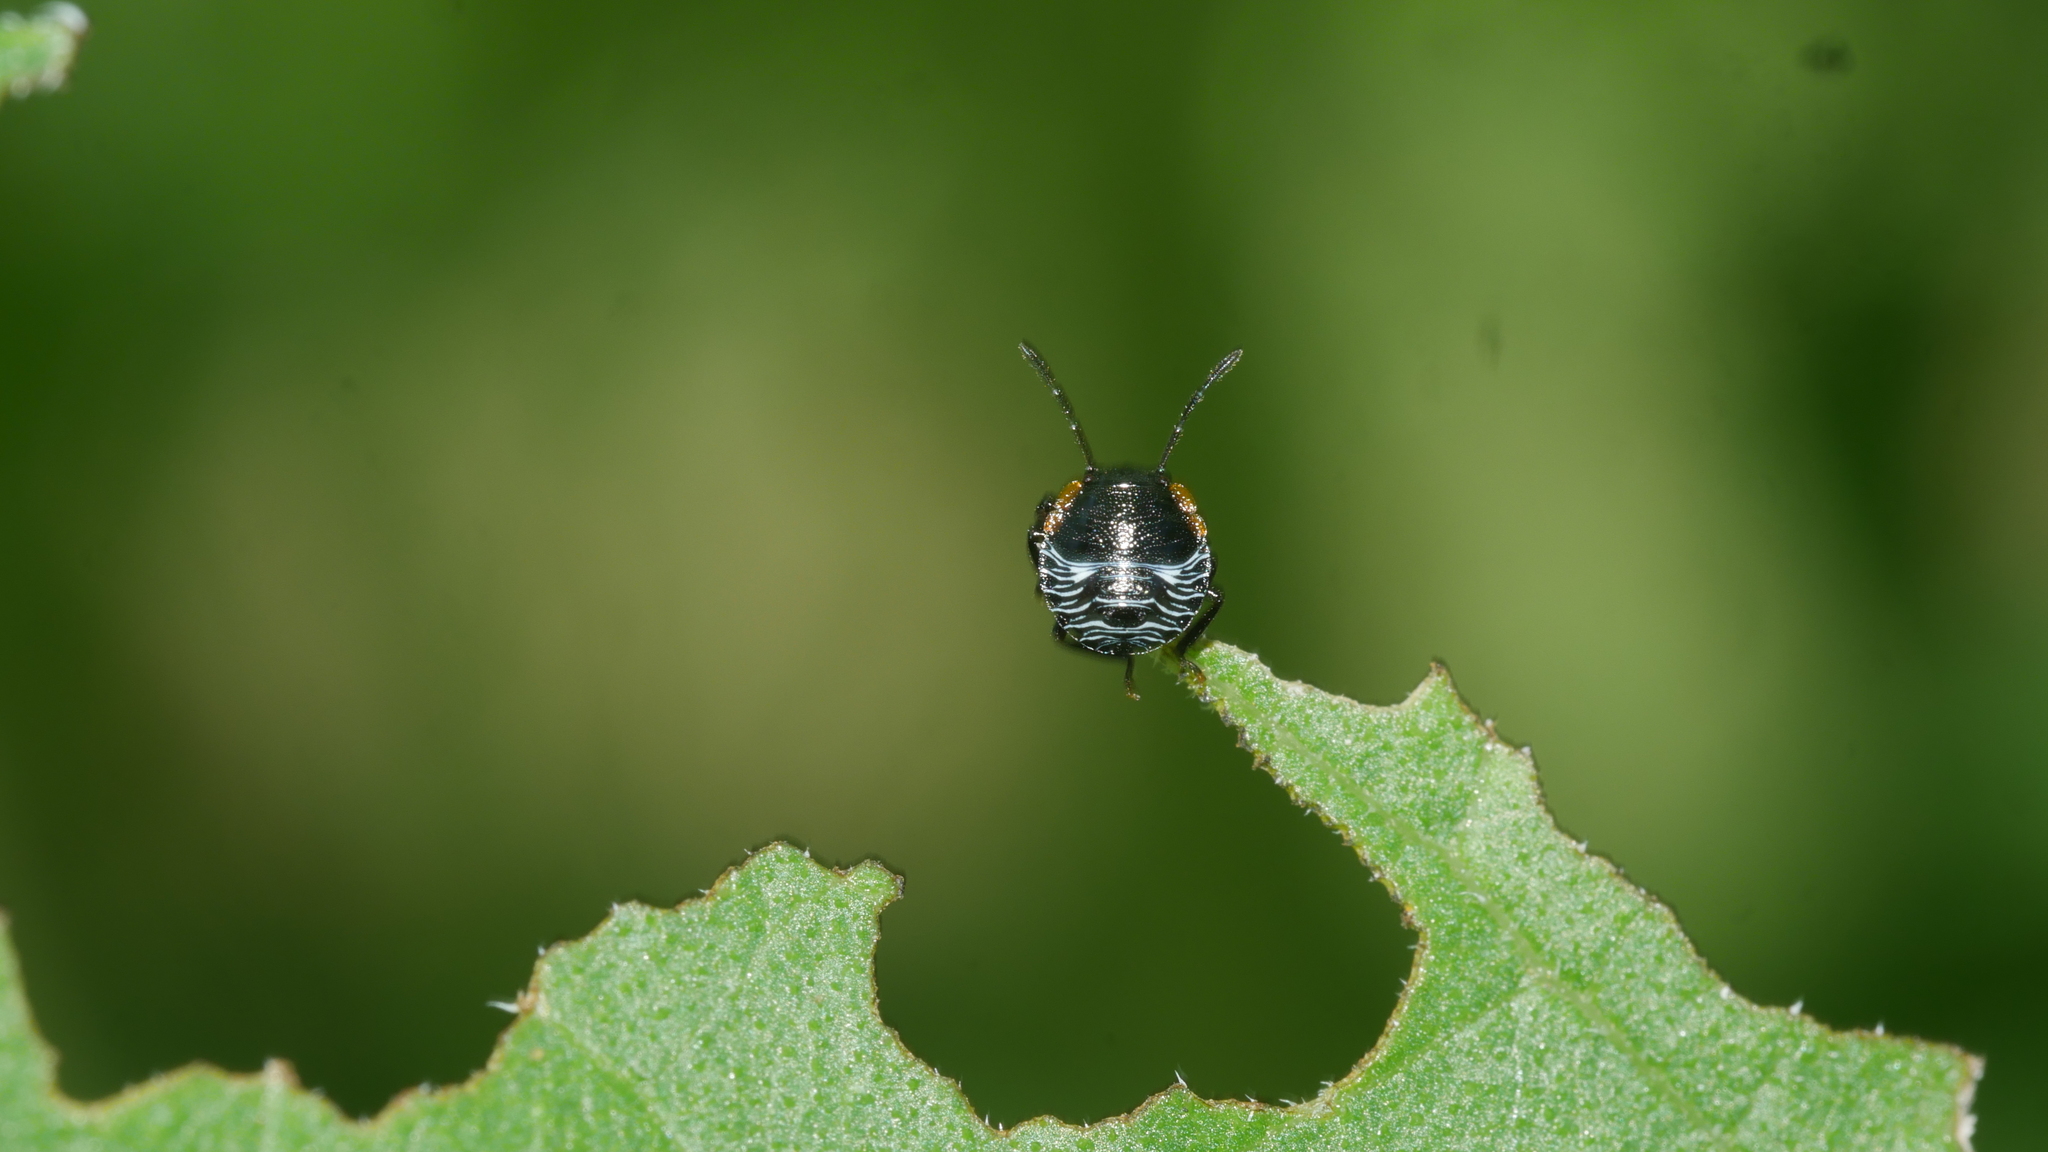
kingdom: Animalia
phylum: Arthropoda
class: Insecta
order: Hemiptera
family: Pentatomidae
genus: Chinavia
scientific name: Chinavia hilaris
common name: Green stink bug
